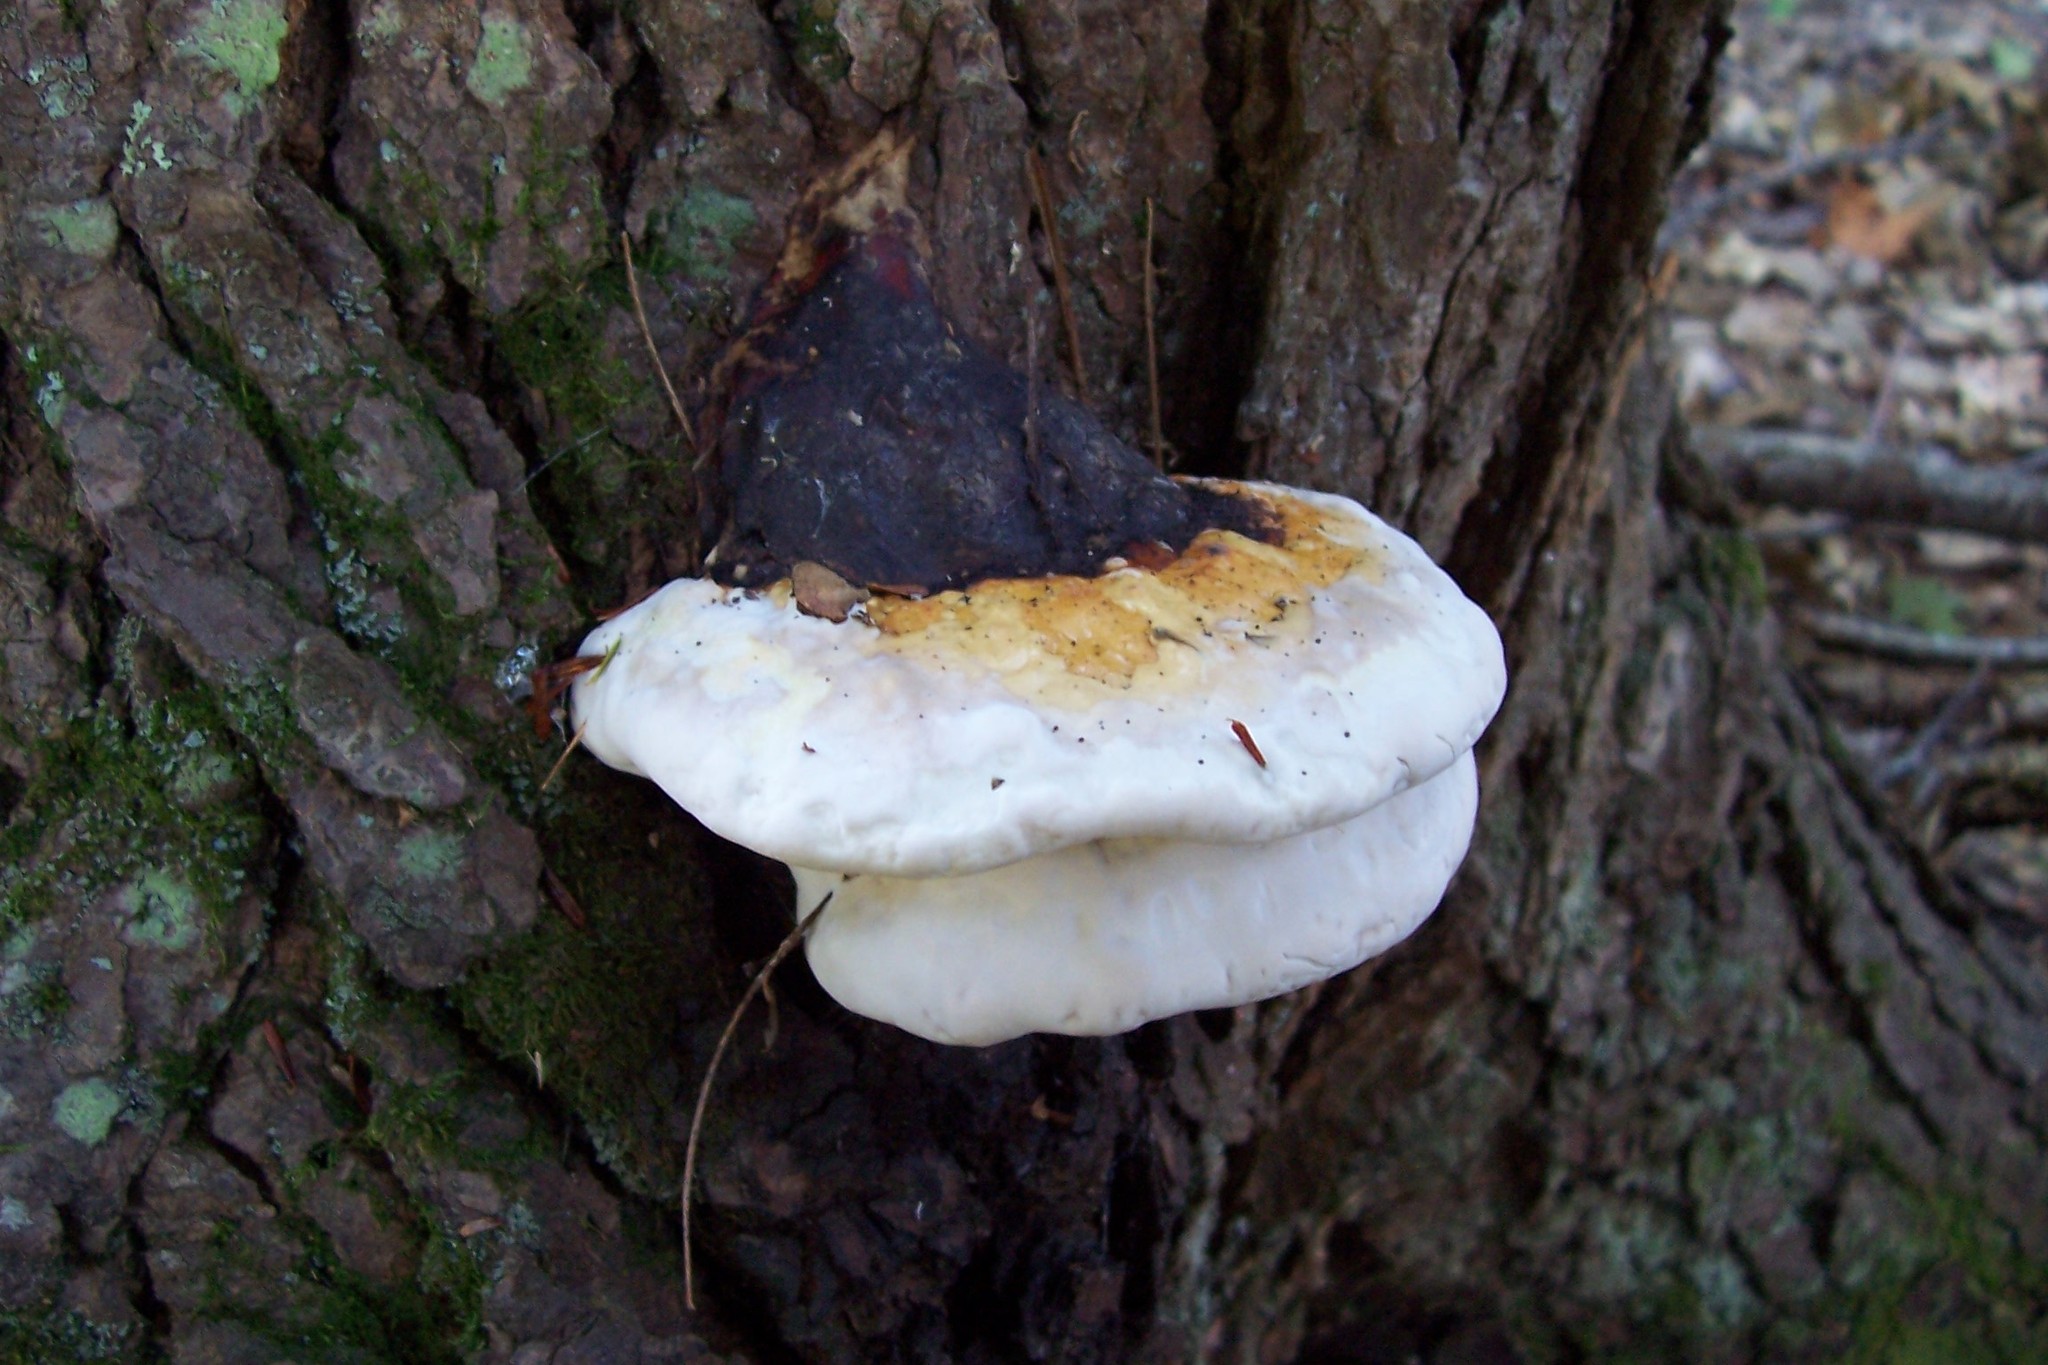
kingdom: Fungi
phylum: Basidiomycota
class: Agaricomycetes
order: Polyporales
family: Fomitopsidaceae
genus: Fomitopsis
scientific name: Fomitopsis mounceae
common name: Northern red belt
